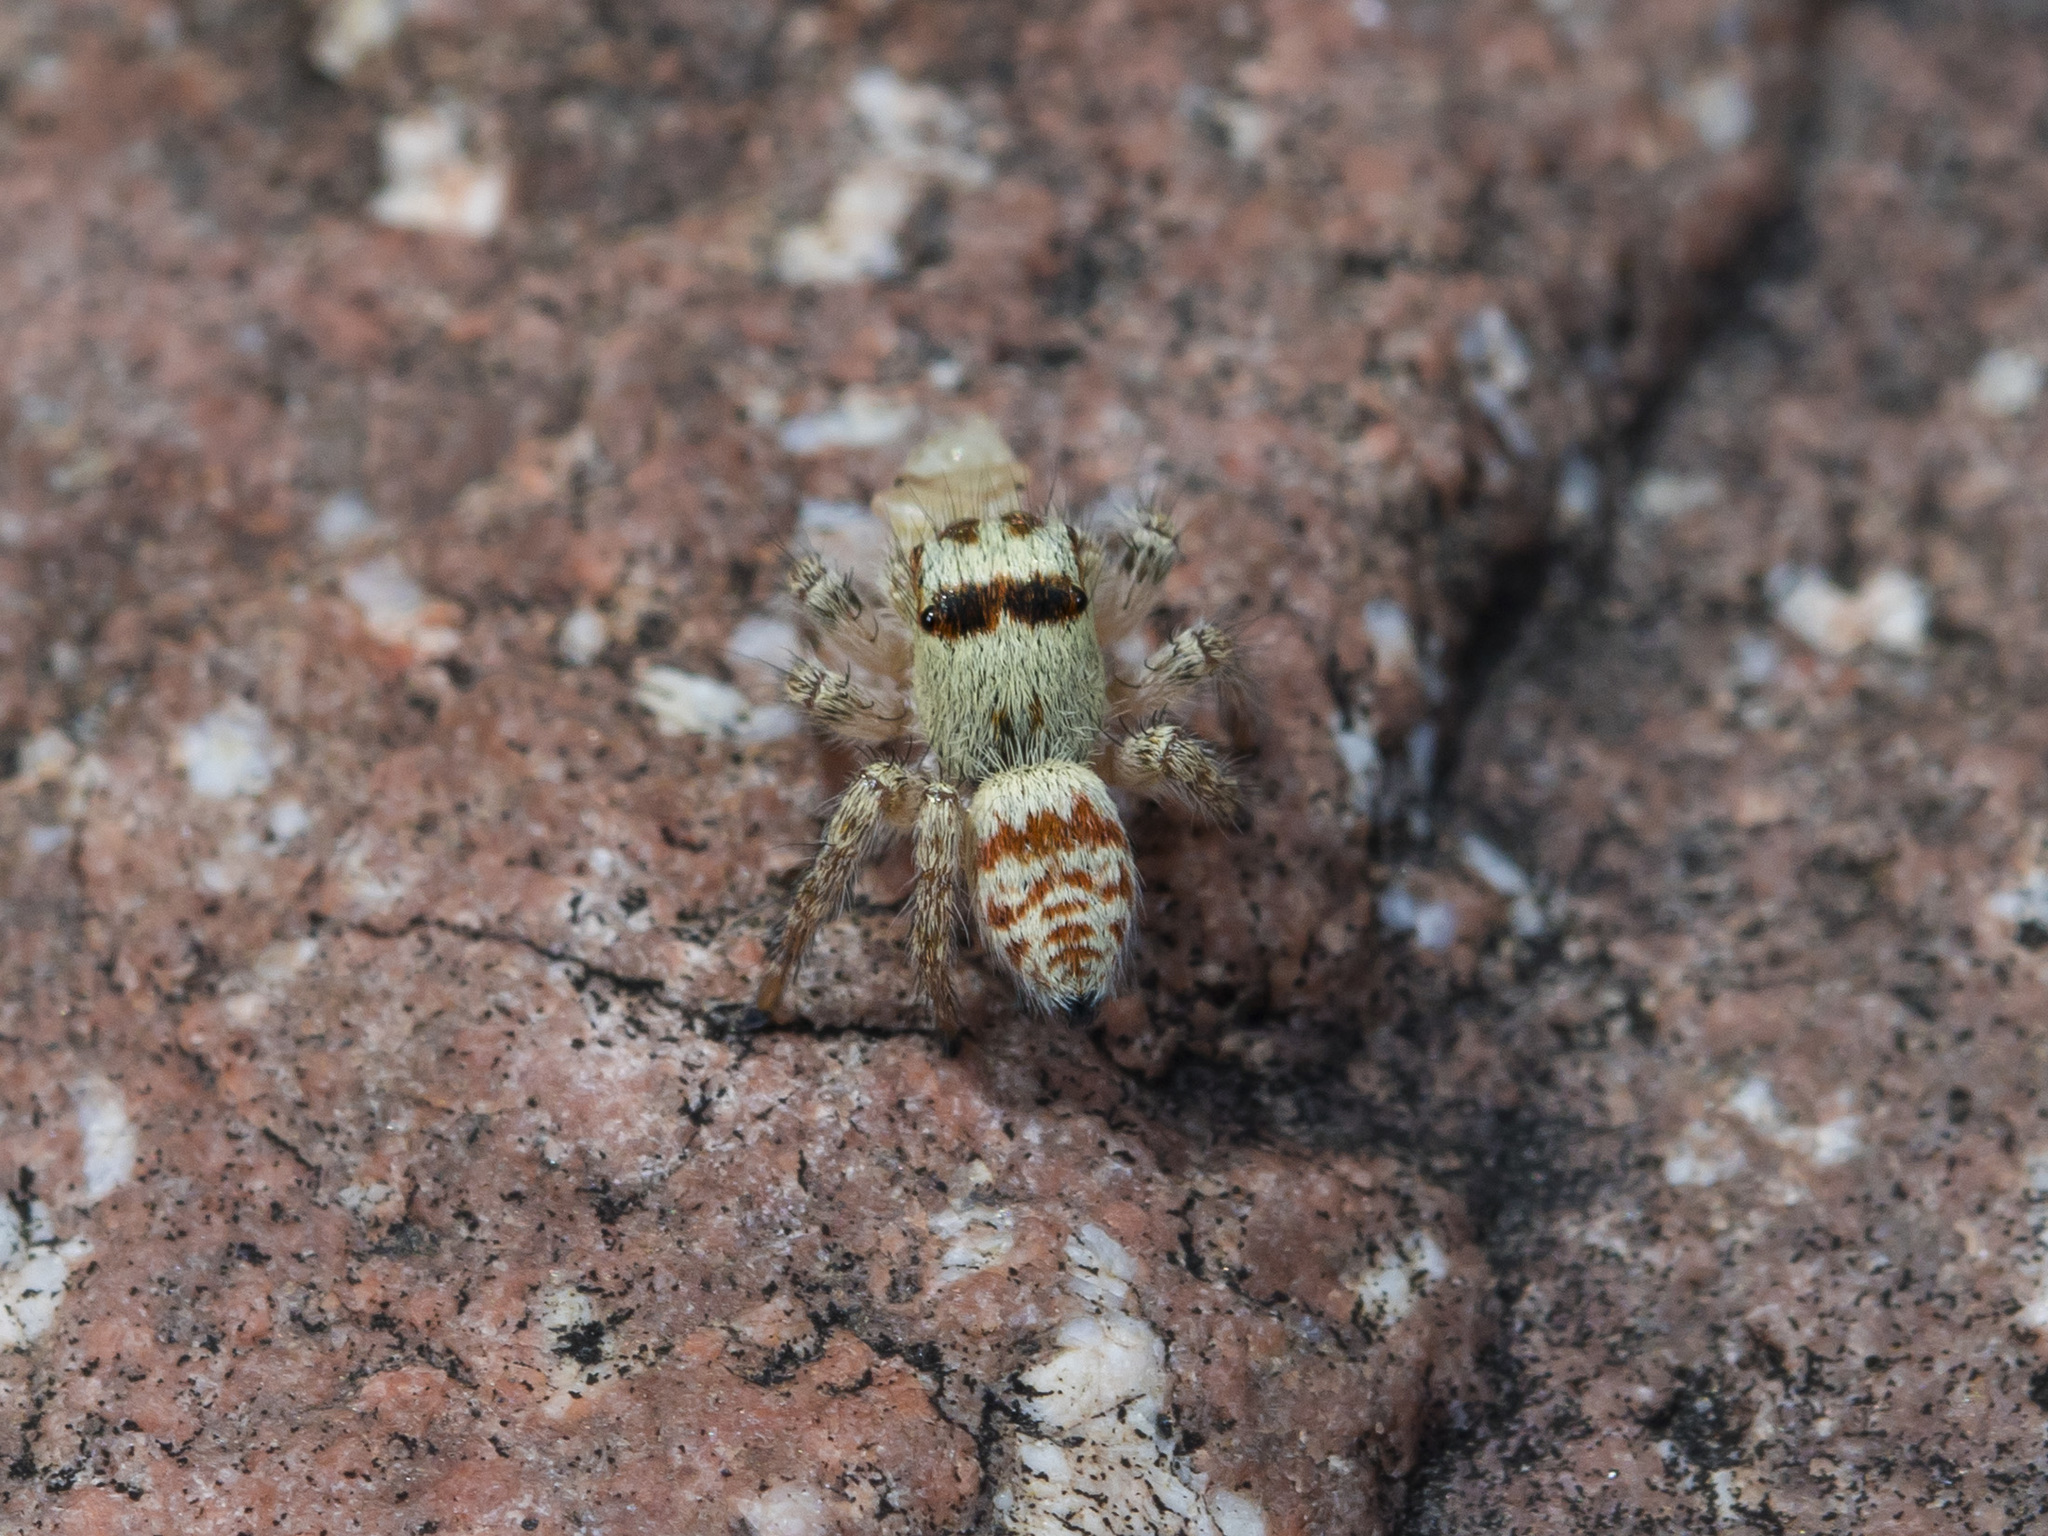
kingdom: Animalia
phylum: Arthropoda
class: Arachnida
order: Araneae
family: Salticidae
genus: Philaeus
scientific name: Philaeus chrysops
